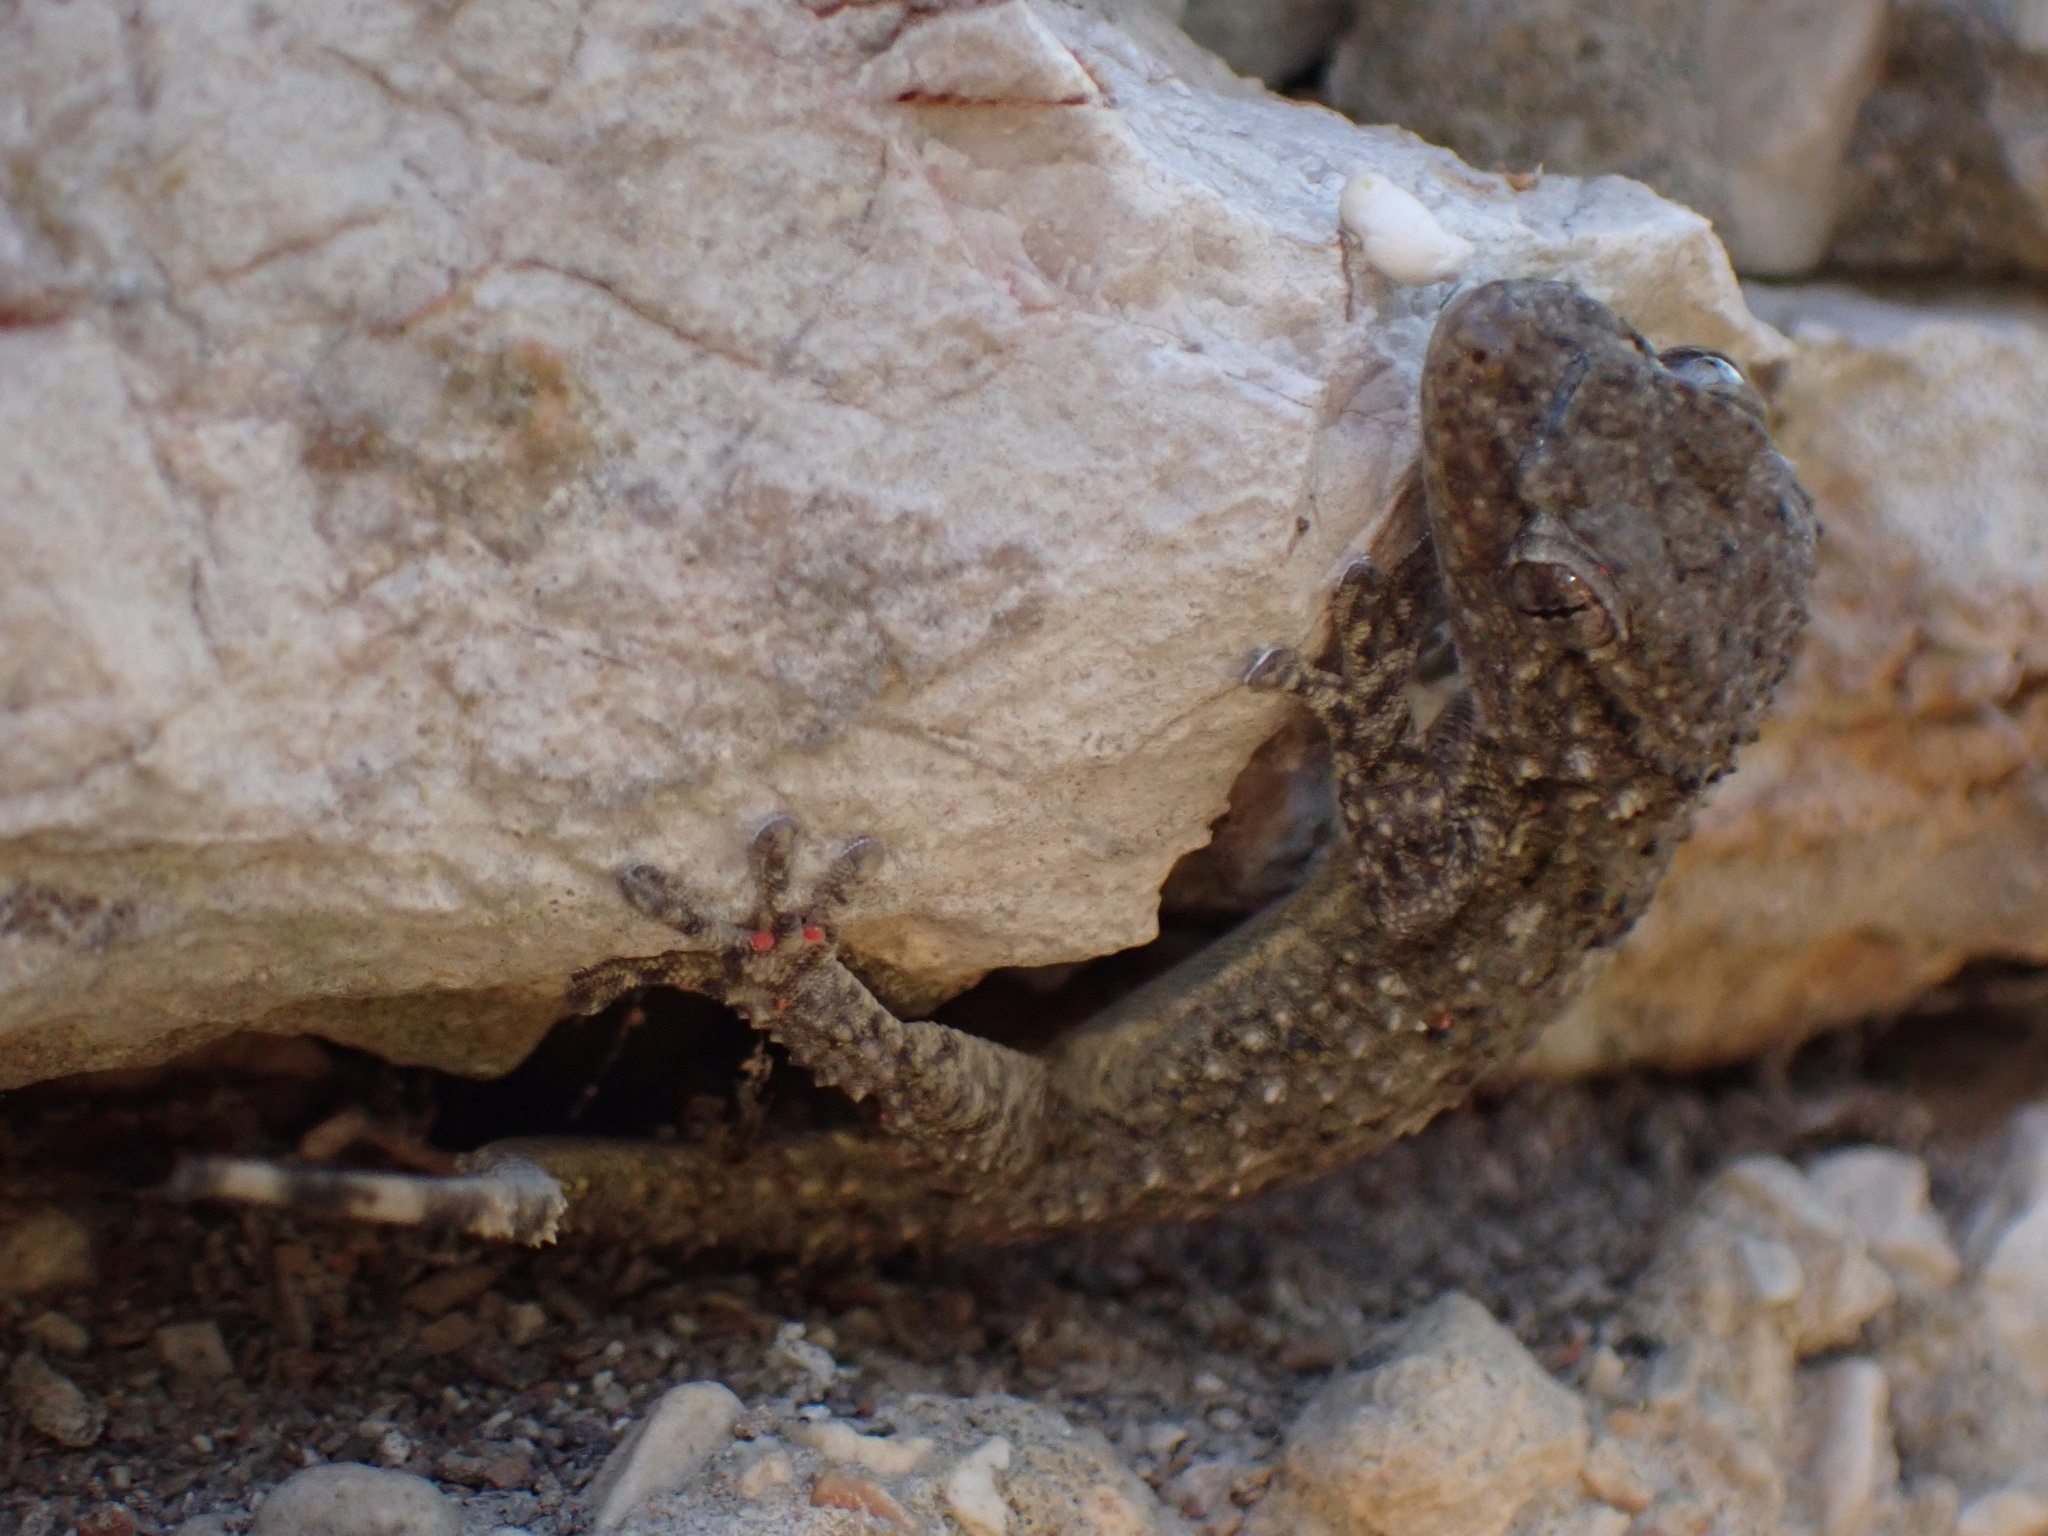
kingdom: Animalia
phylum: Chordata
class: Squamata
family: Phyllodactylidae
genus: Tarentola
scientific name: Tarentola mauritanica
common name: Moorish gecko
